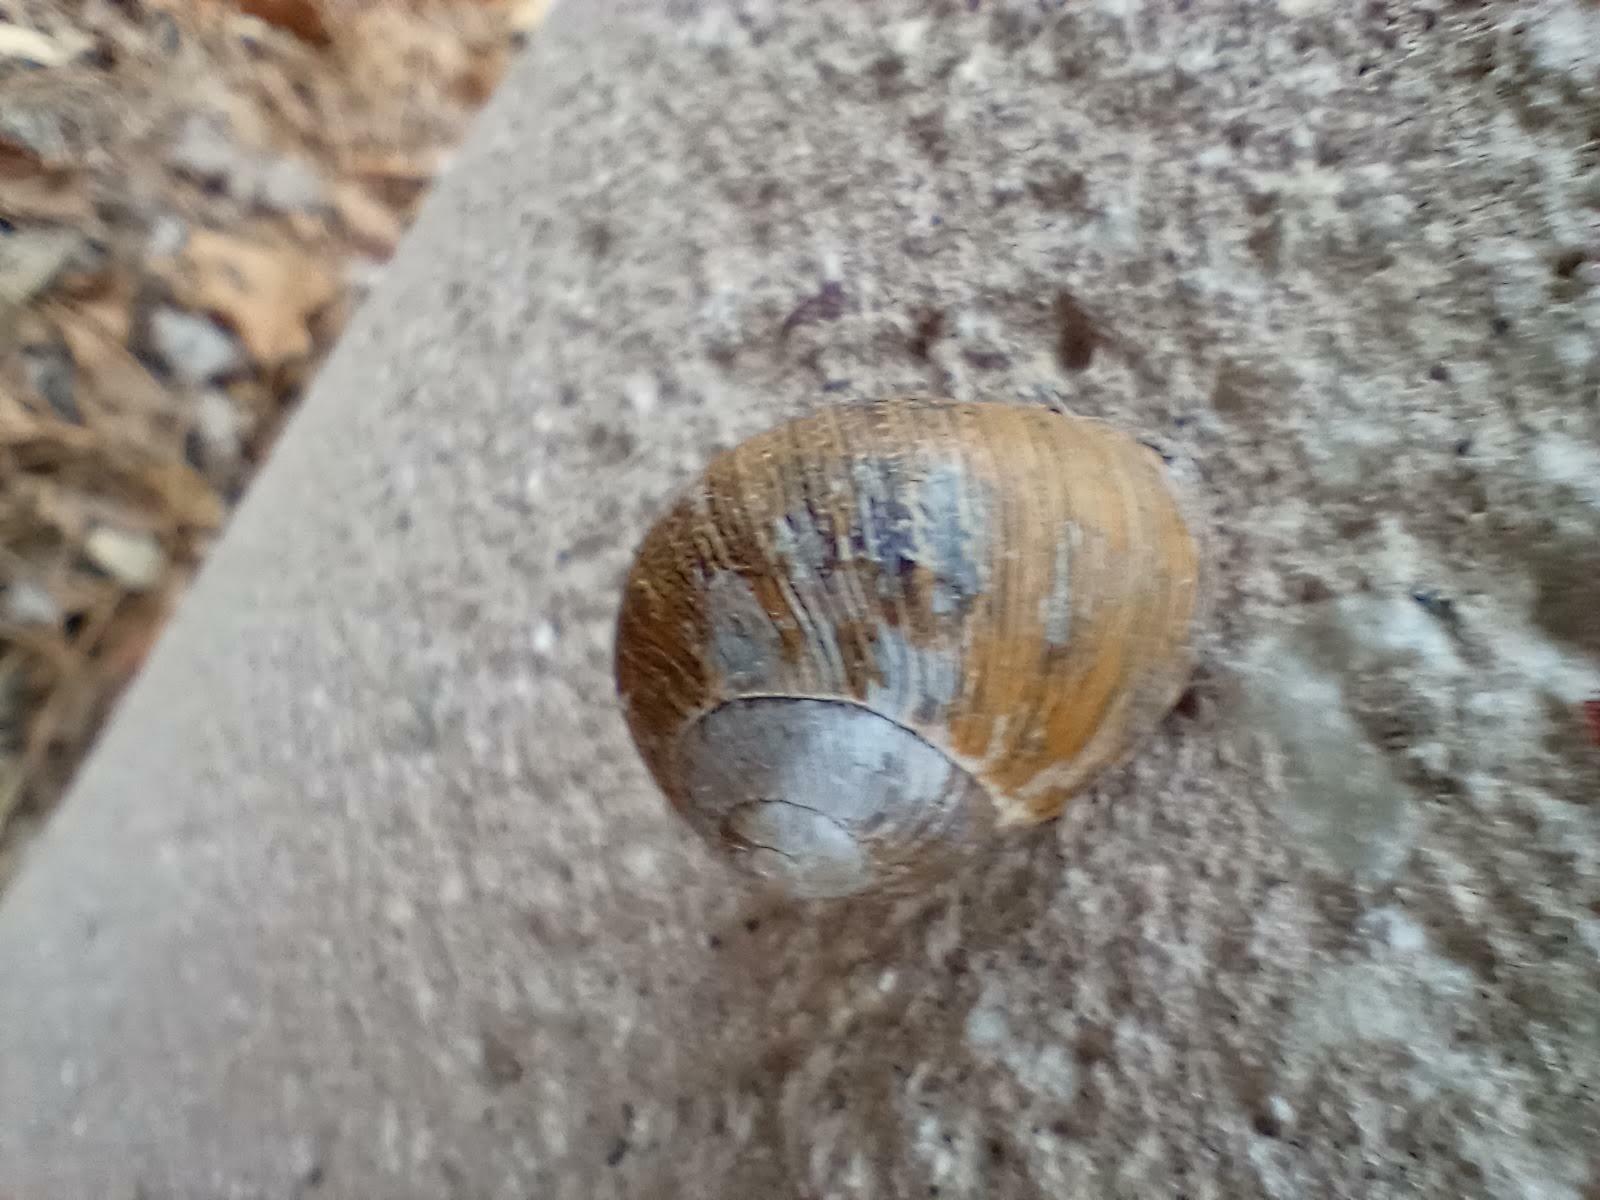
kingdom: Animalia
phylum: Mollusca
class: Gastropoda
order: Stylommatophora
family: Helicidae
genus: Cornu
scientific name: Cornu aspersum
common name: Brown garden snail
